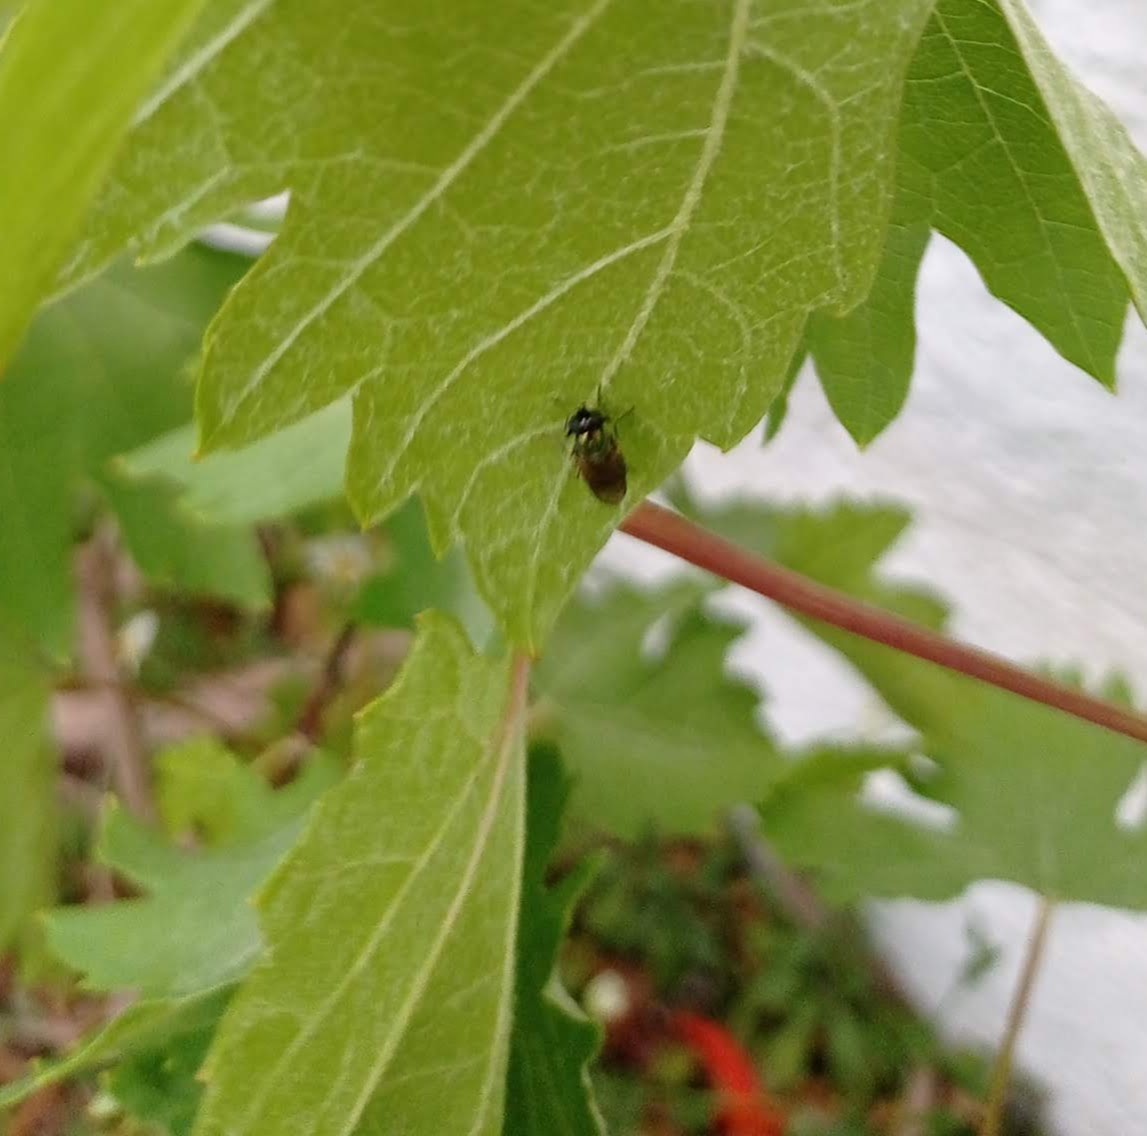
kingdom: Animalia
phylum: Arthropoda
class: Insecta
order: Diptera
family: Stratiomyidae
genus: Chloromyia
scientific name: Chloromyia formosa
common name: Soldier fly
